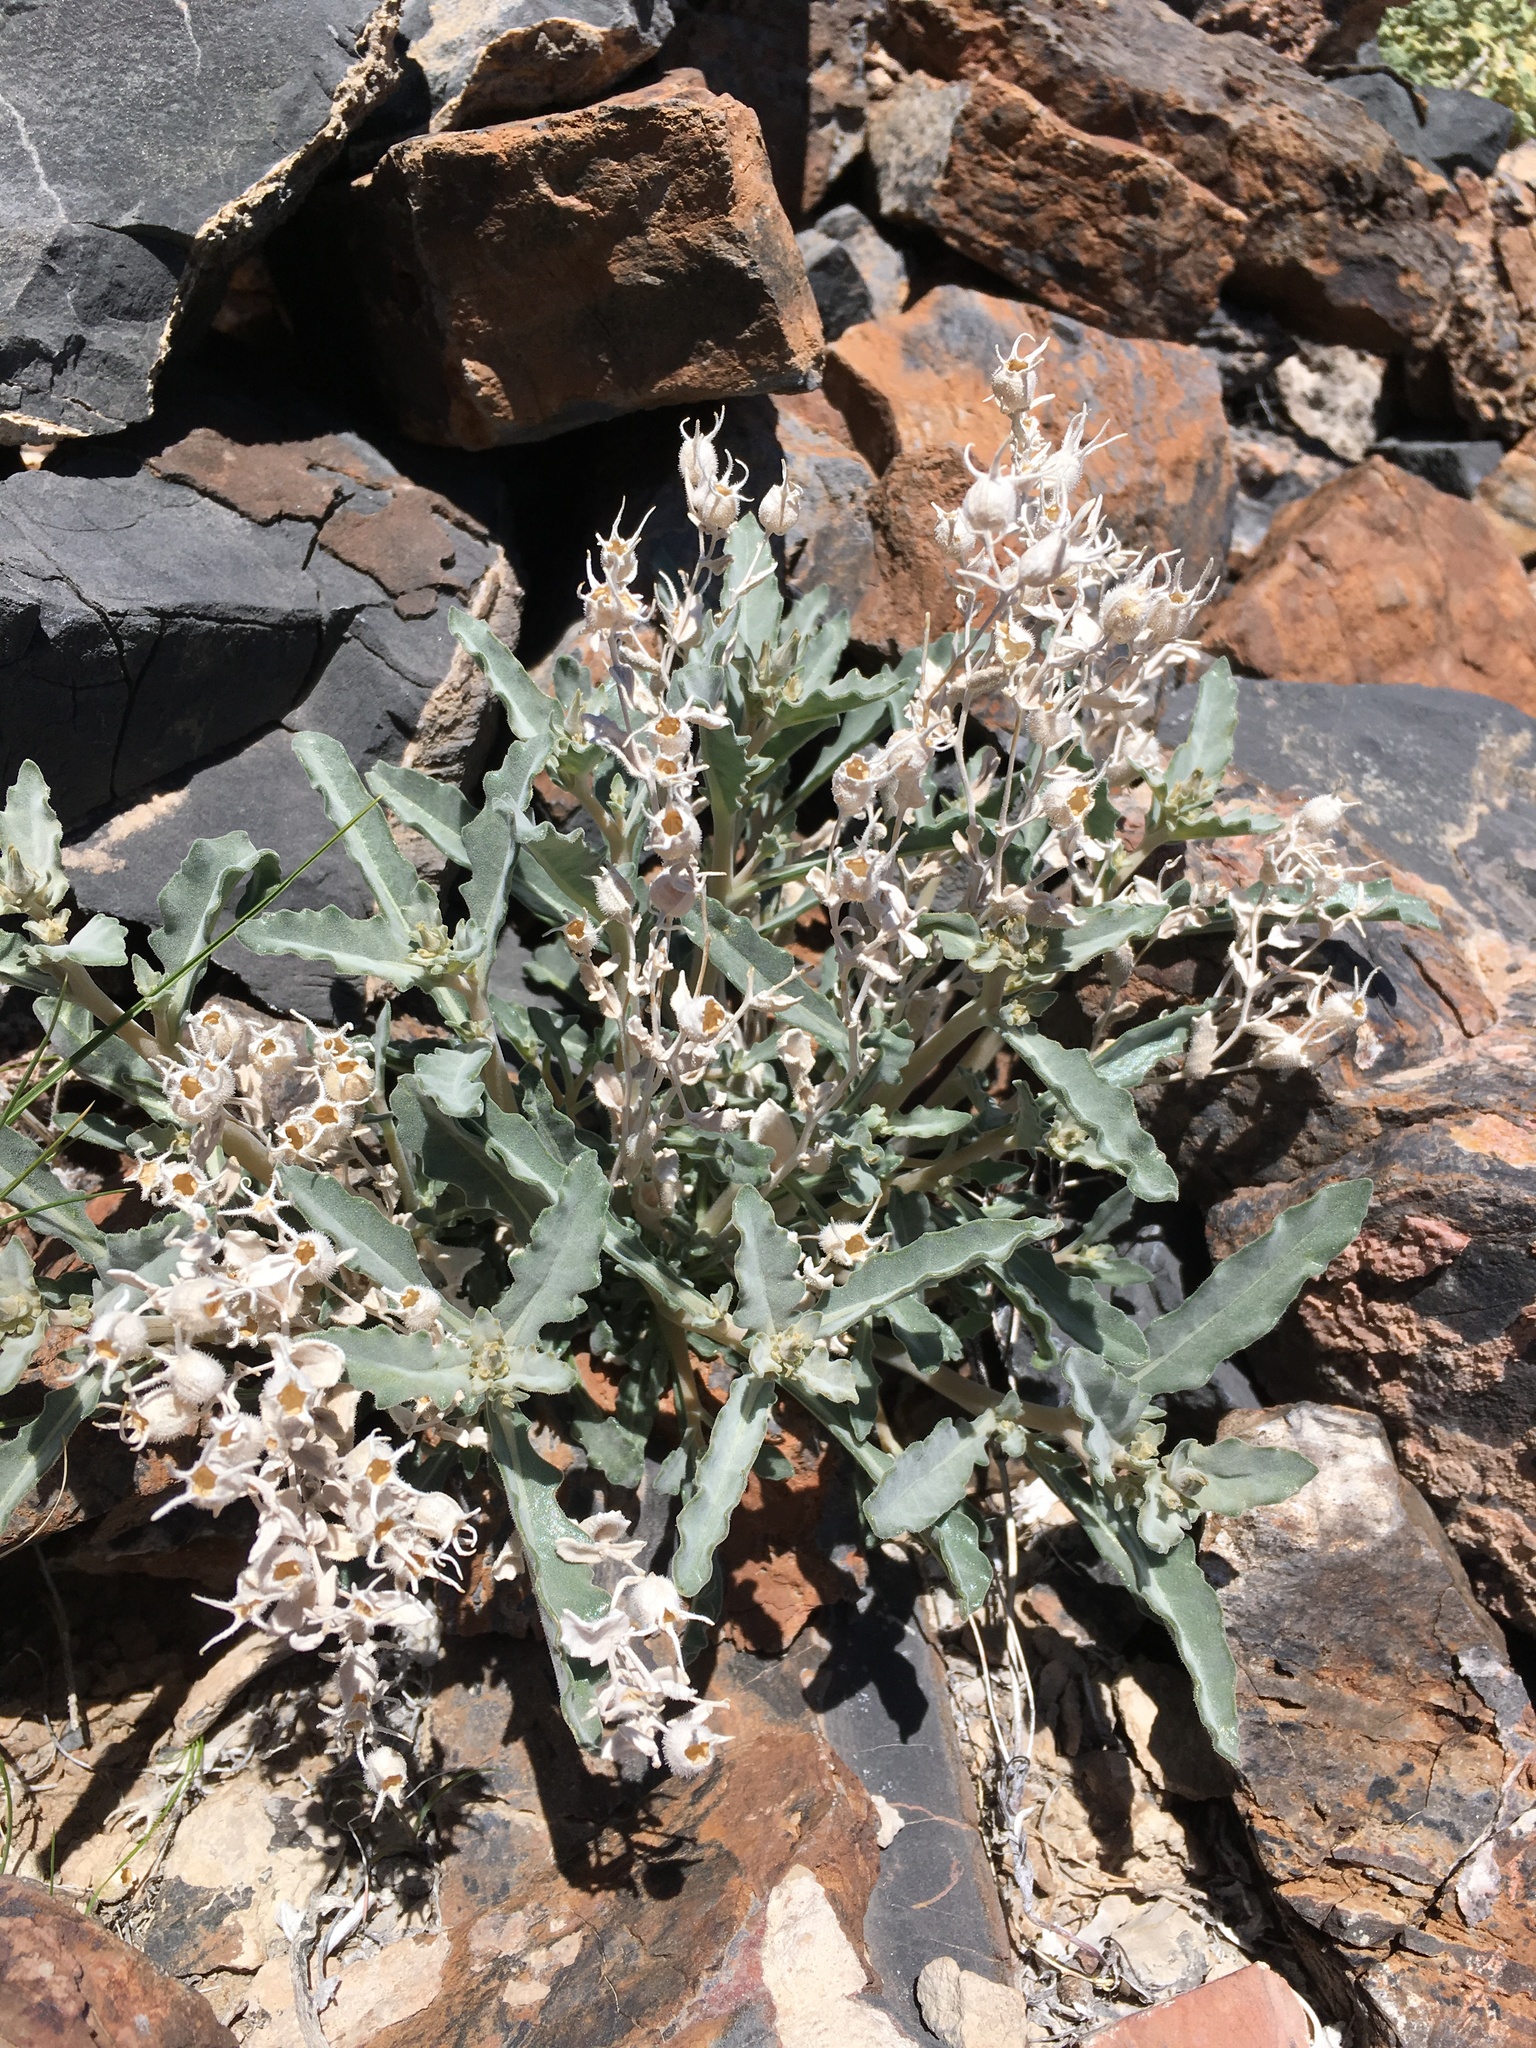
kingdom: Plantae
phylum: Tracheophyta
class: Magnoliopsida
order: Cornales
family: Loasaceae
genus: Mentzelia
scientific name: Mentzelia oreophila
